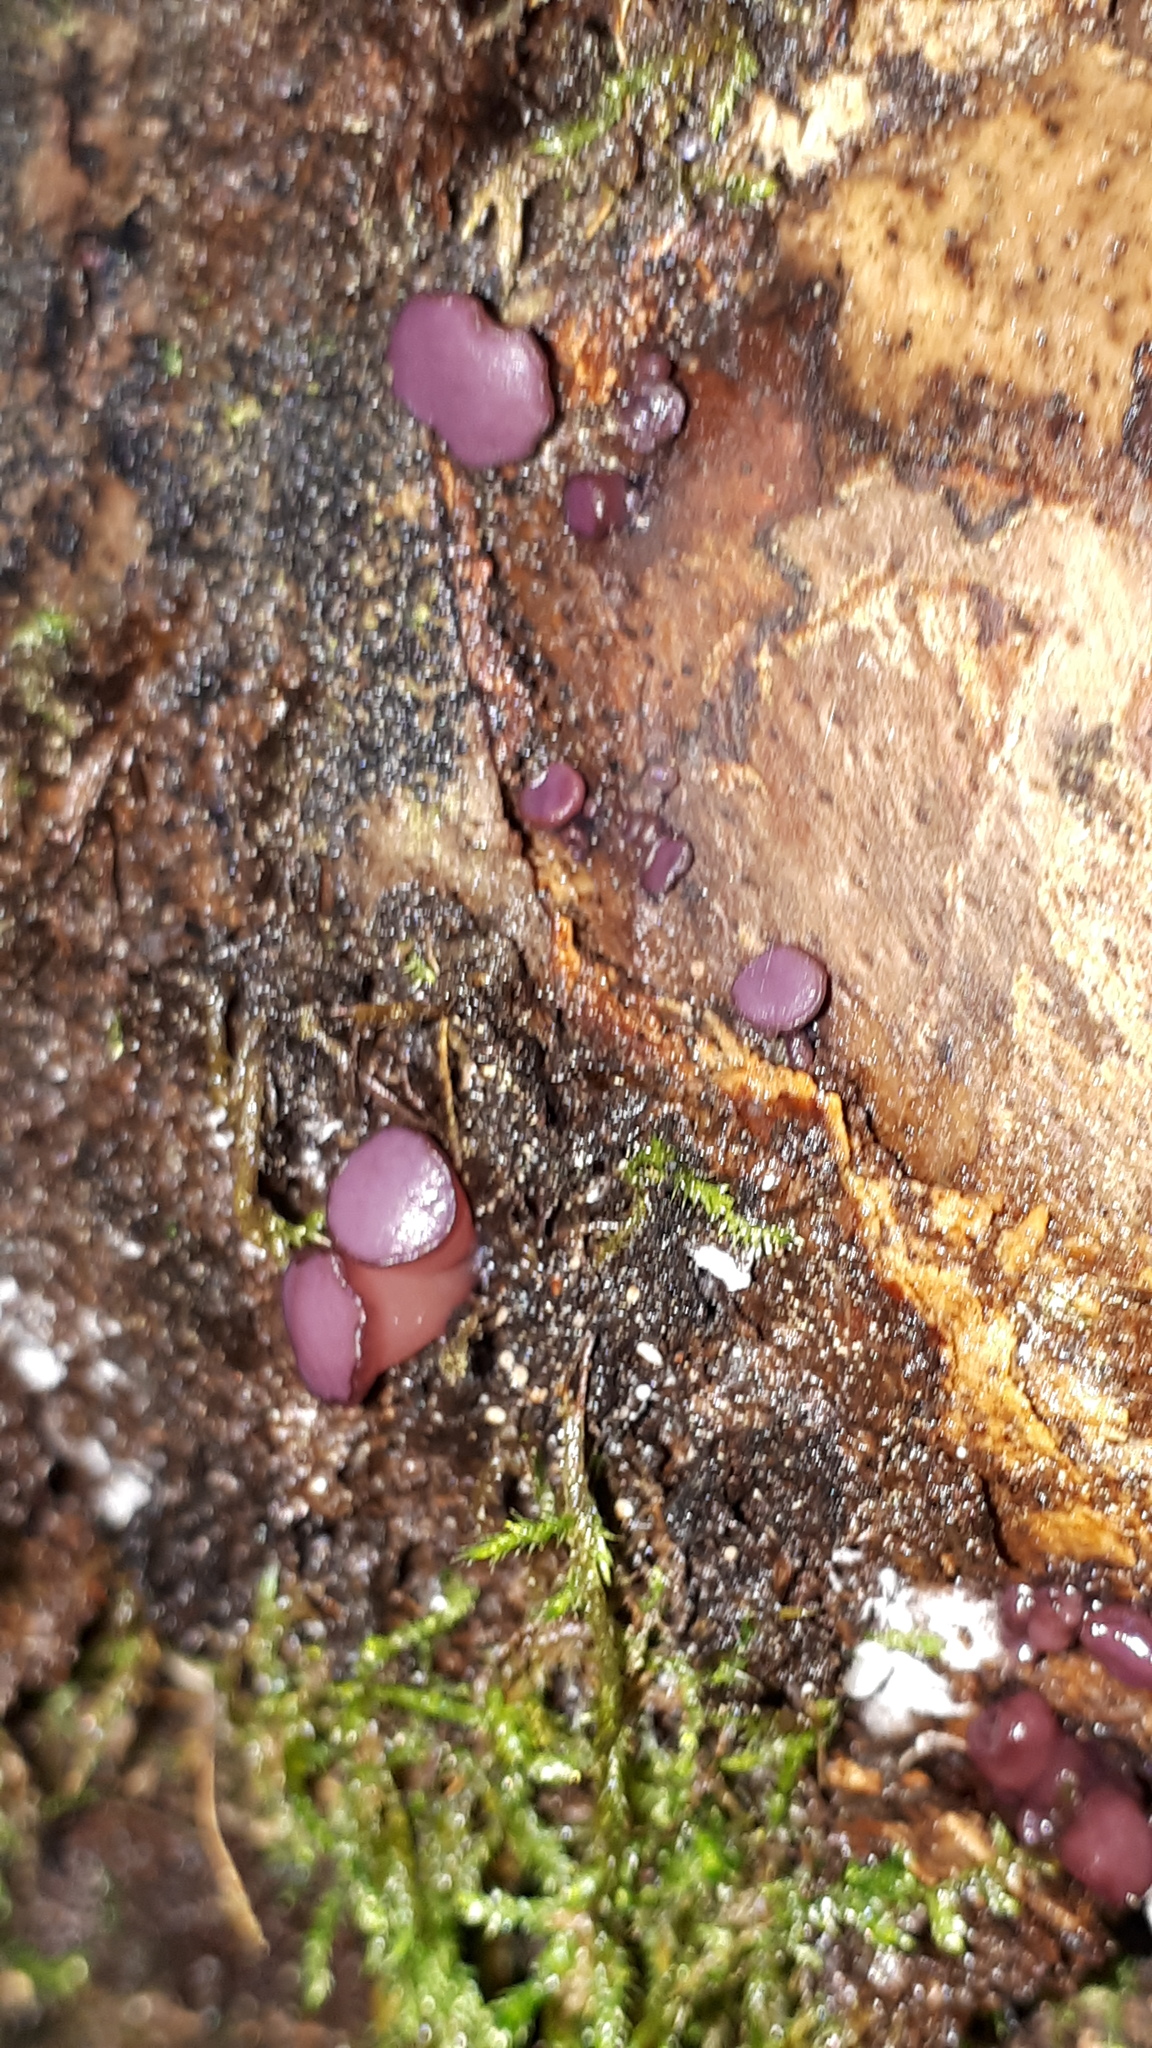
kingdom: Fungi
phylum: Ascomycota
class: Leotiomycetes
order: Helotiales
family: Gelatinodiscaceae
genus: Ascocoryne
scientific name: Ascocoryne sarcoides
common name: Purple jellydisc
